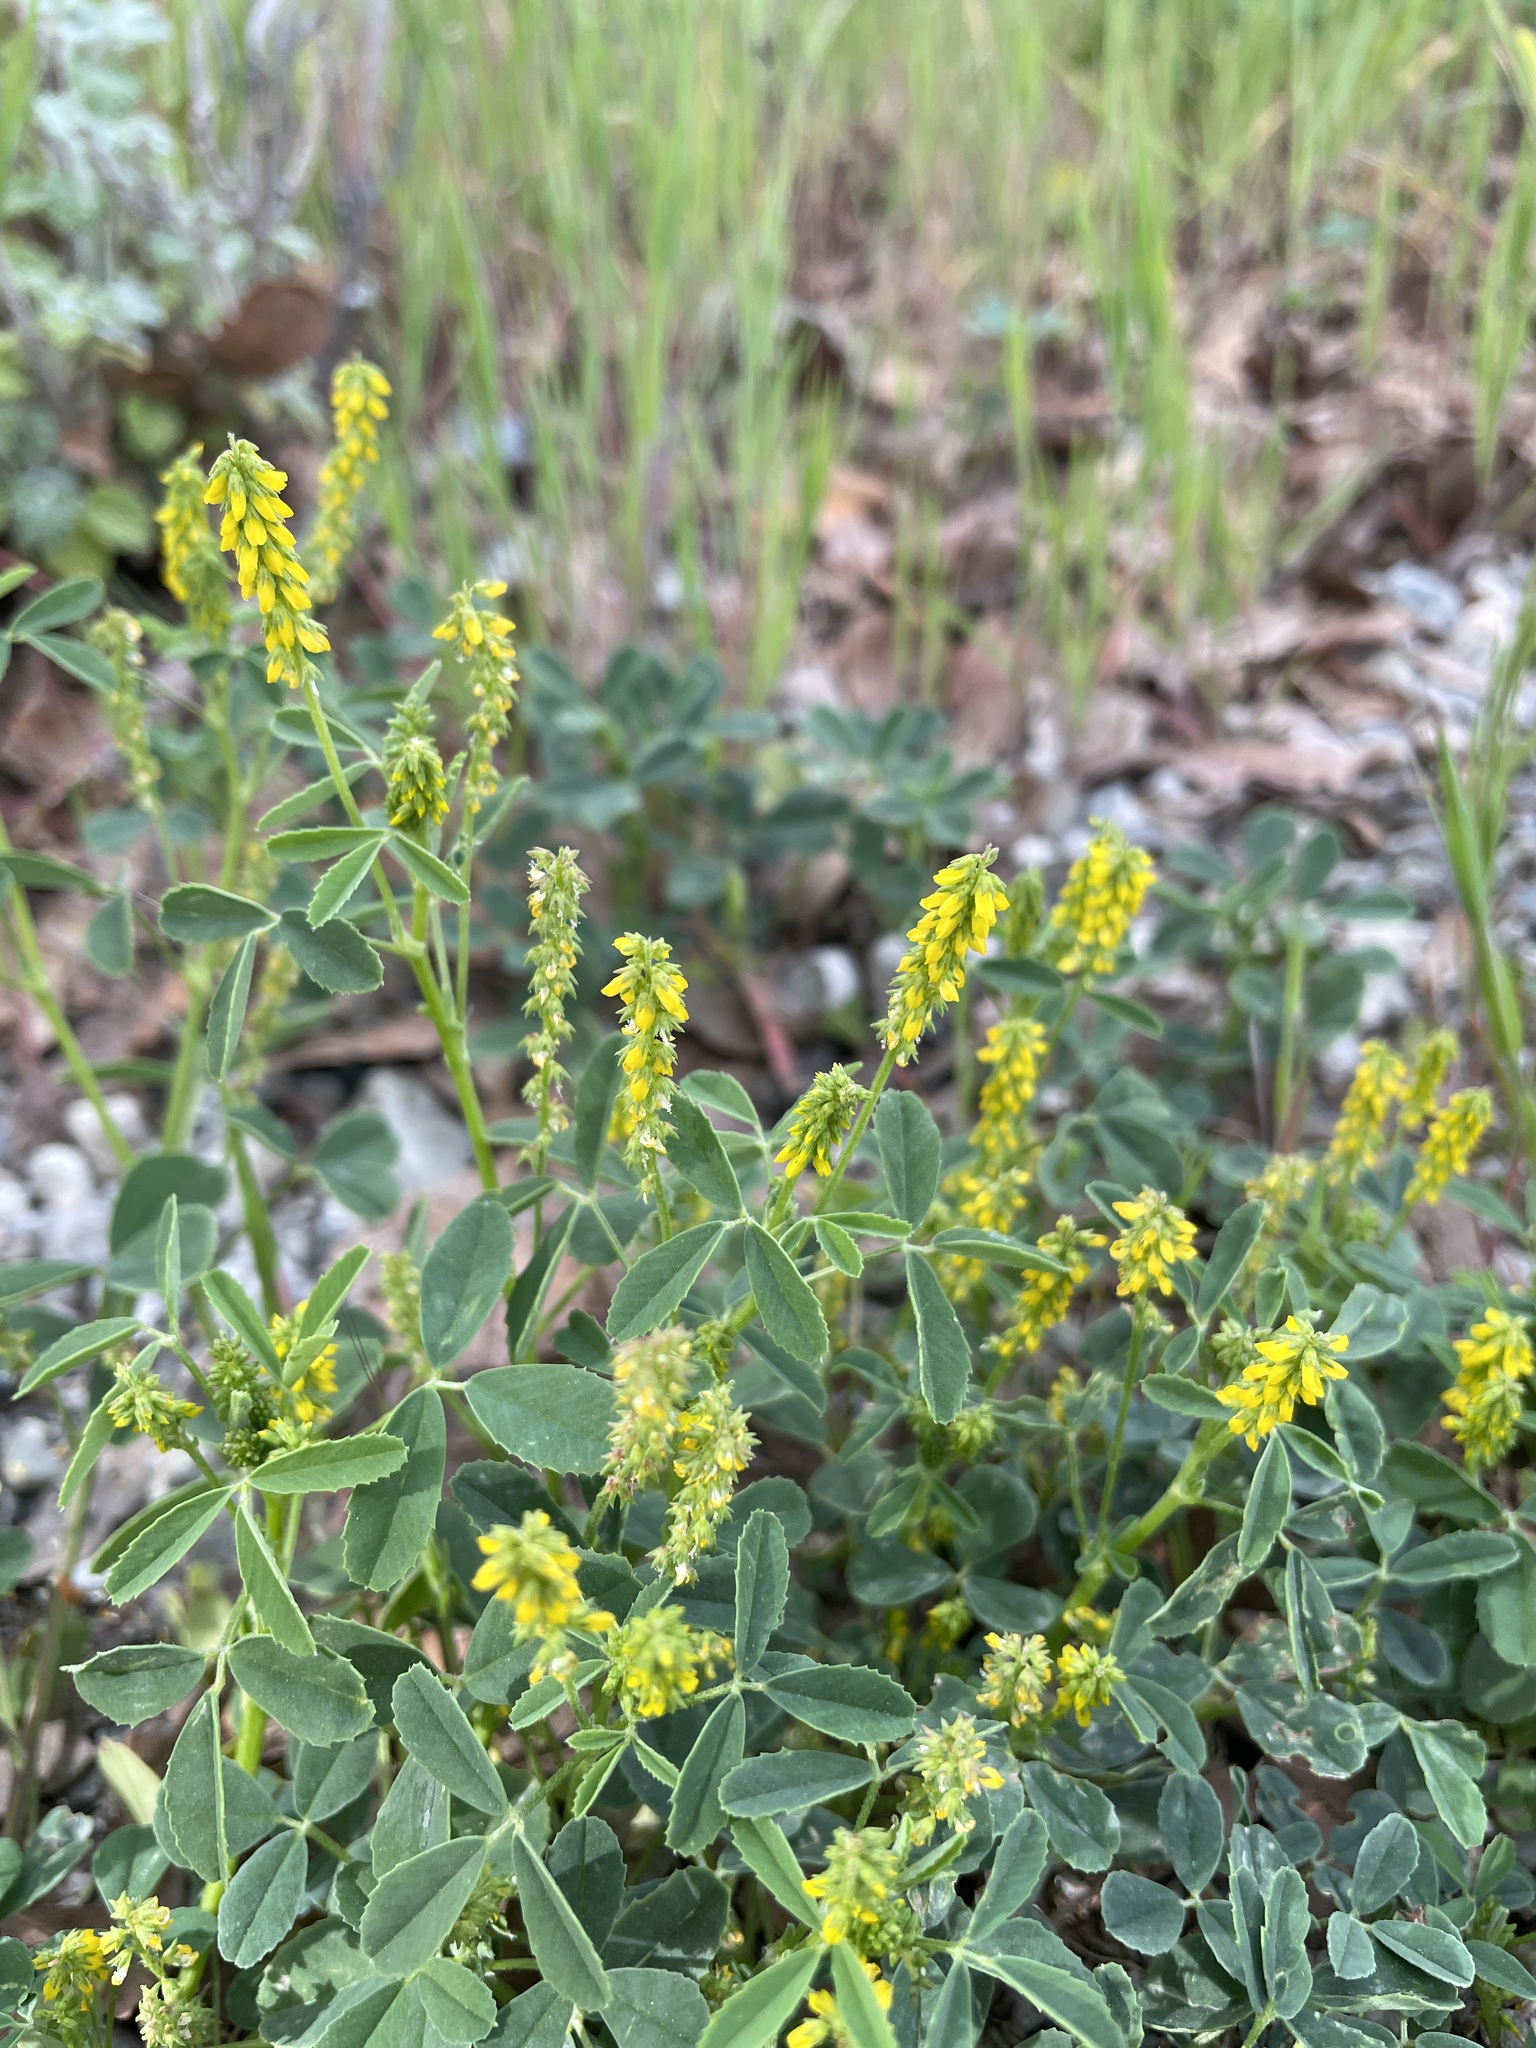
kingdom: Plantae
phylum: Tracheophyta
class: Magnoliopsida
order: Fabales
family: Fabaceae
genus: Melilotus
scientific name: Melilotus indicus
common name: Small melilot
